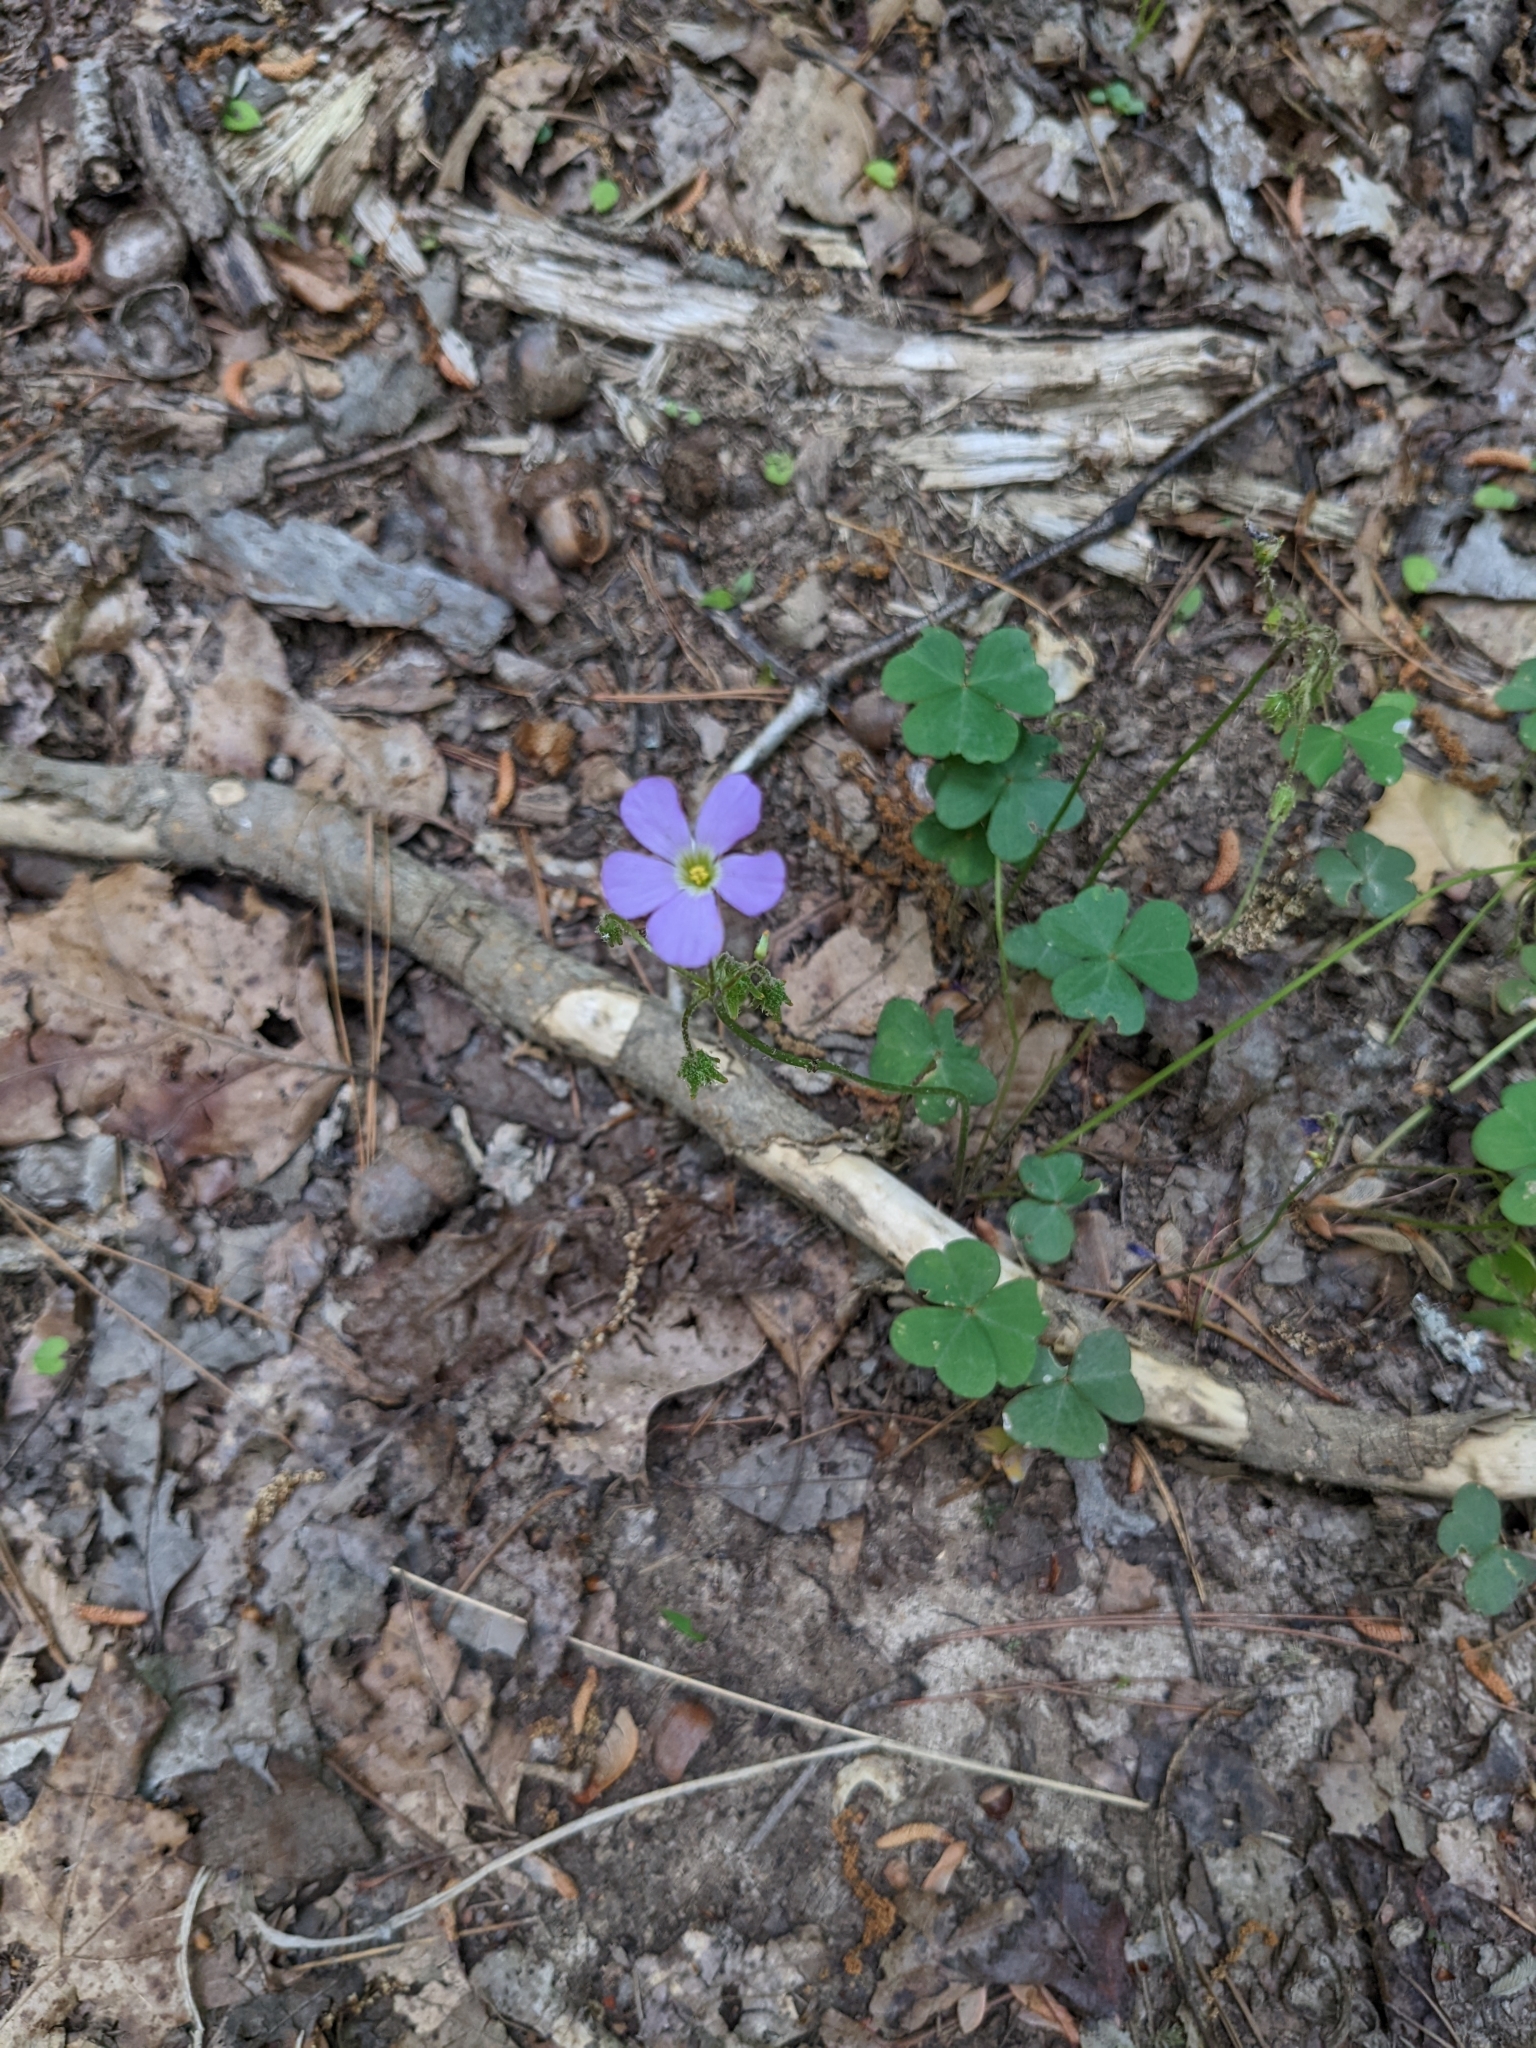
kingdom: Plantae
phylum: Tracheophyta
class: Magnoliopsida
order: Oxalidales
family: Oxalidaceae
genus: Oxalis
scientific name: Oxalis violacea
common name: Violet wood-sorrel
